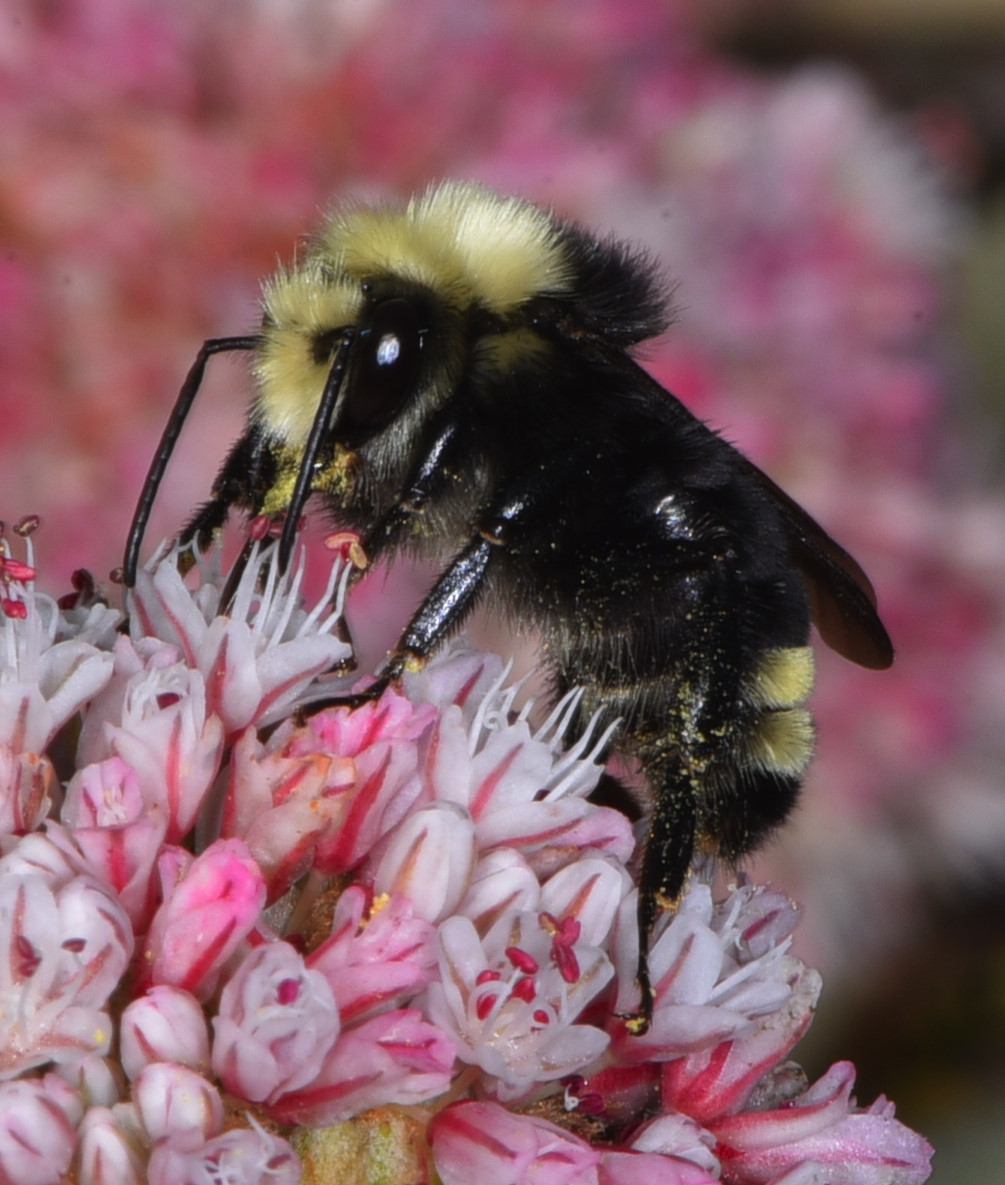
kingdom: Animalia
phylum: Arthropoda
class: Insecta
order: Hymenoptera
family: Apidae
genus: Pyrobombus
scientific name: Pyrobombus
